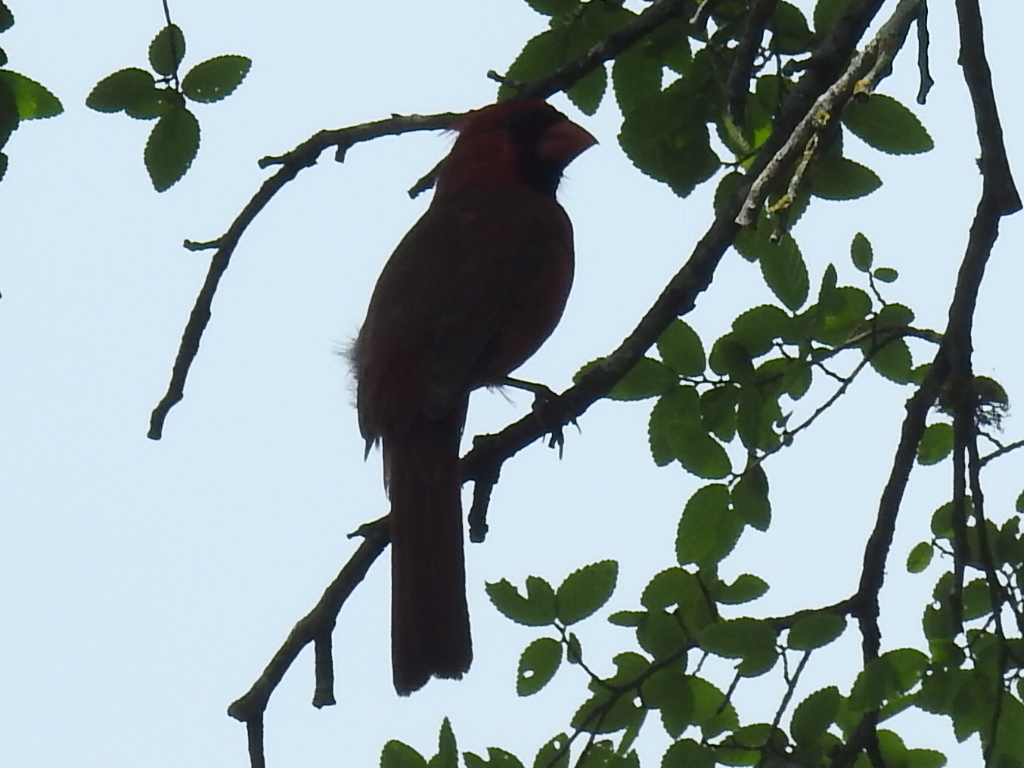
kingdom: Animalia
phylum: Chordata
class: Aves
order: Passeriformes
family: Cardinalidae
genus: Cardinalis
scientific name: Cardinalis cardinalis
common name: Northern cardinal
